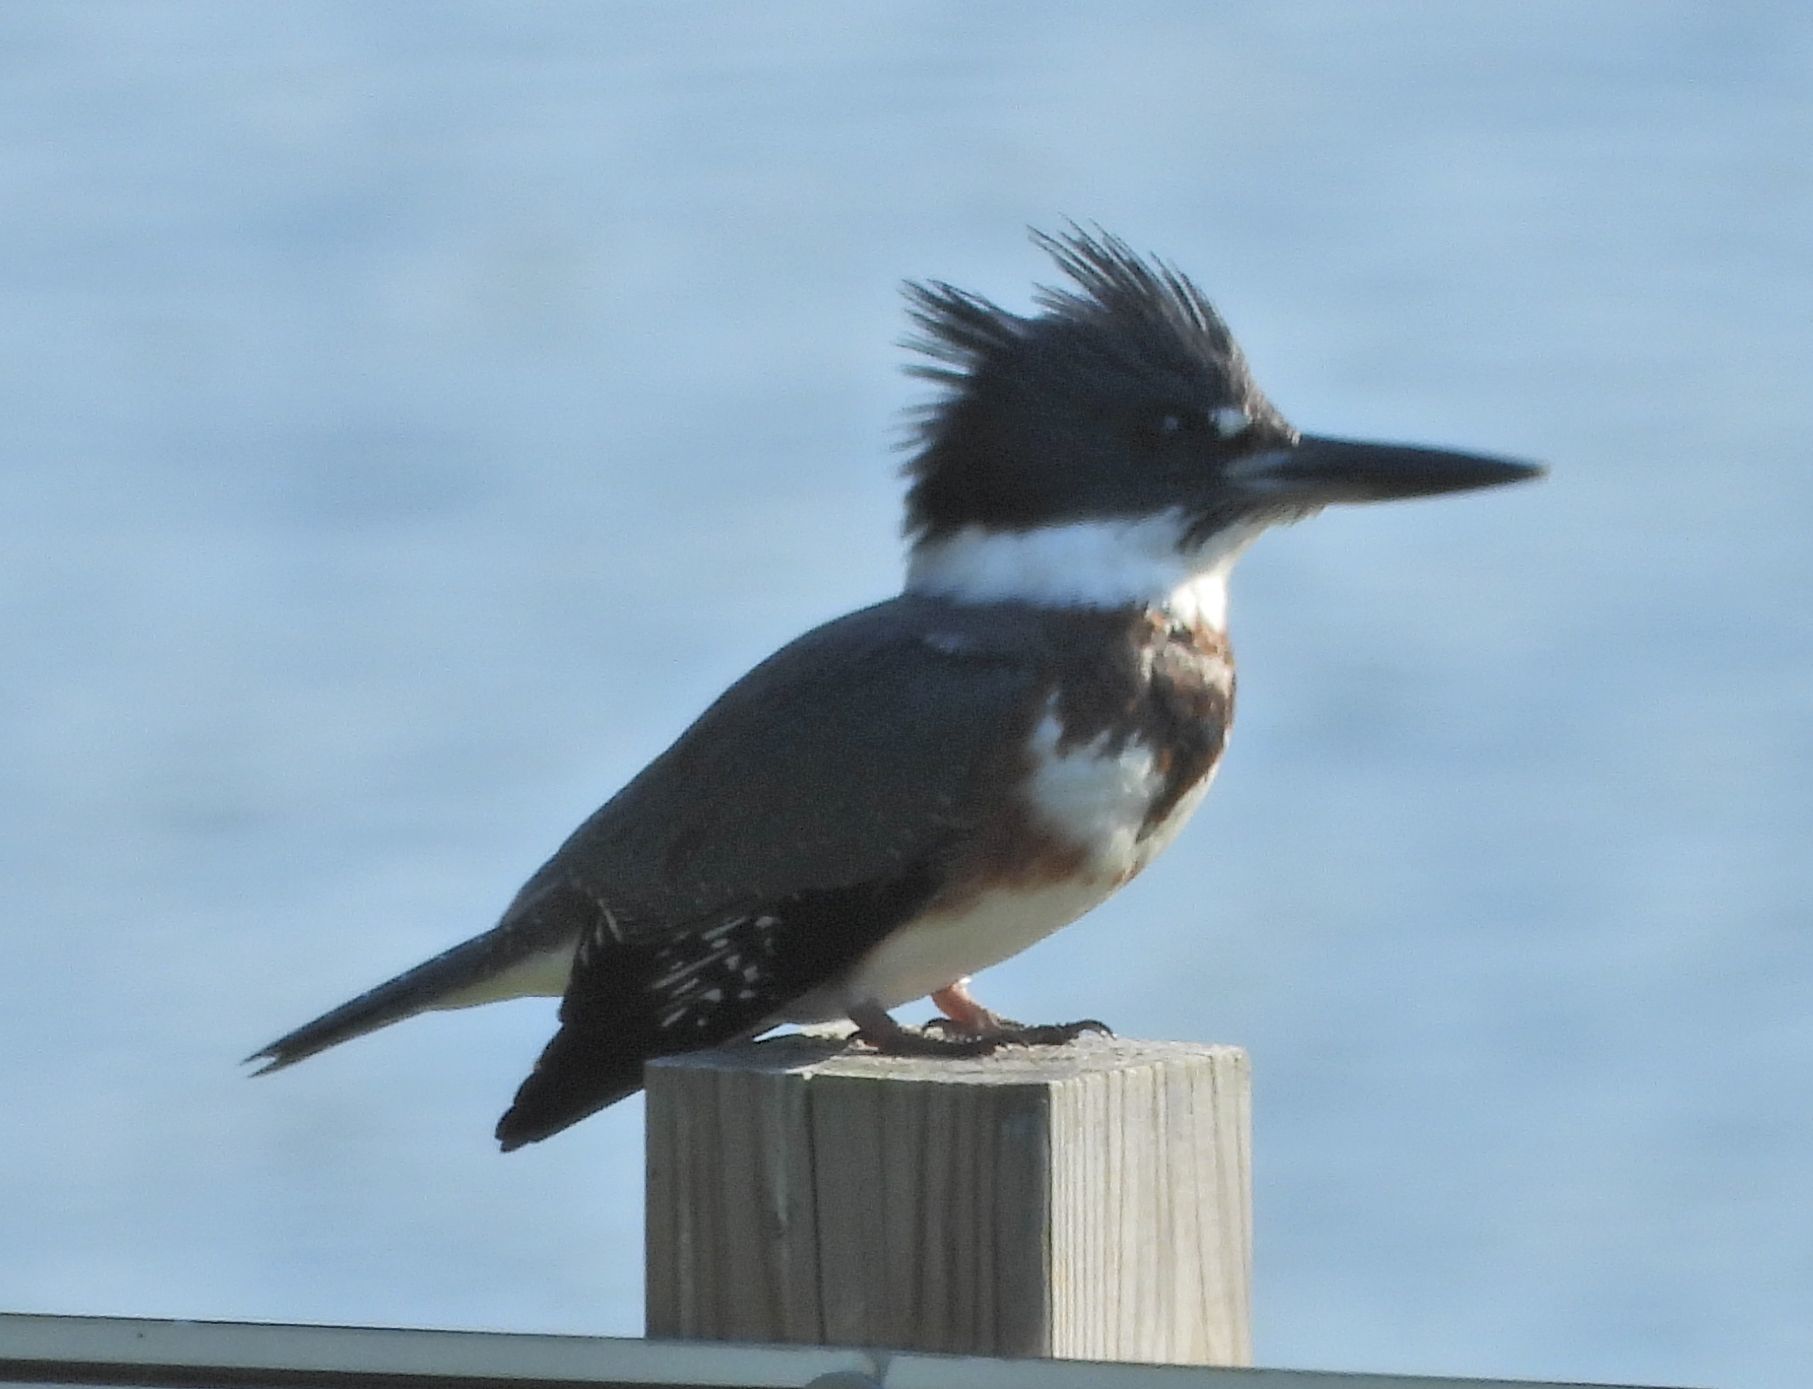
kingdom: Animalia
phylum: Chordata
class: Aves
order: Coraciiformes
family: Alcedinidae
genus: Megaceryle
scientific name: Megaceryle alcyon
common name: Belted kingfisher
